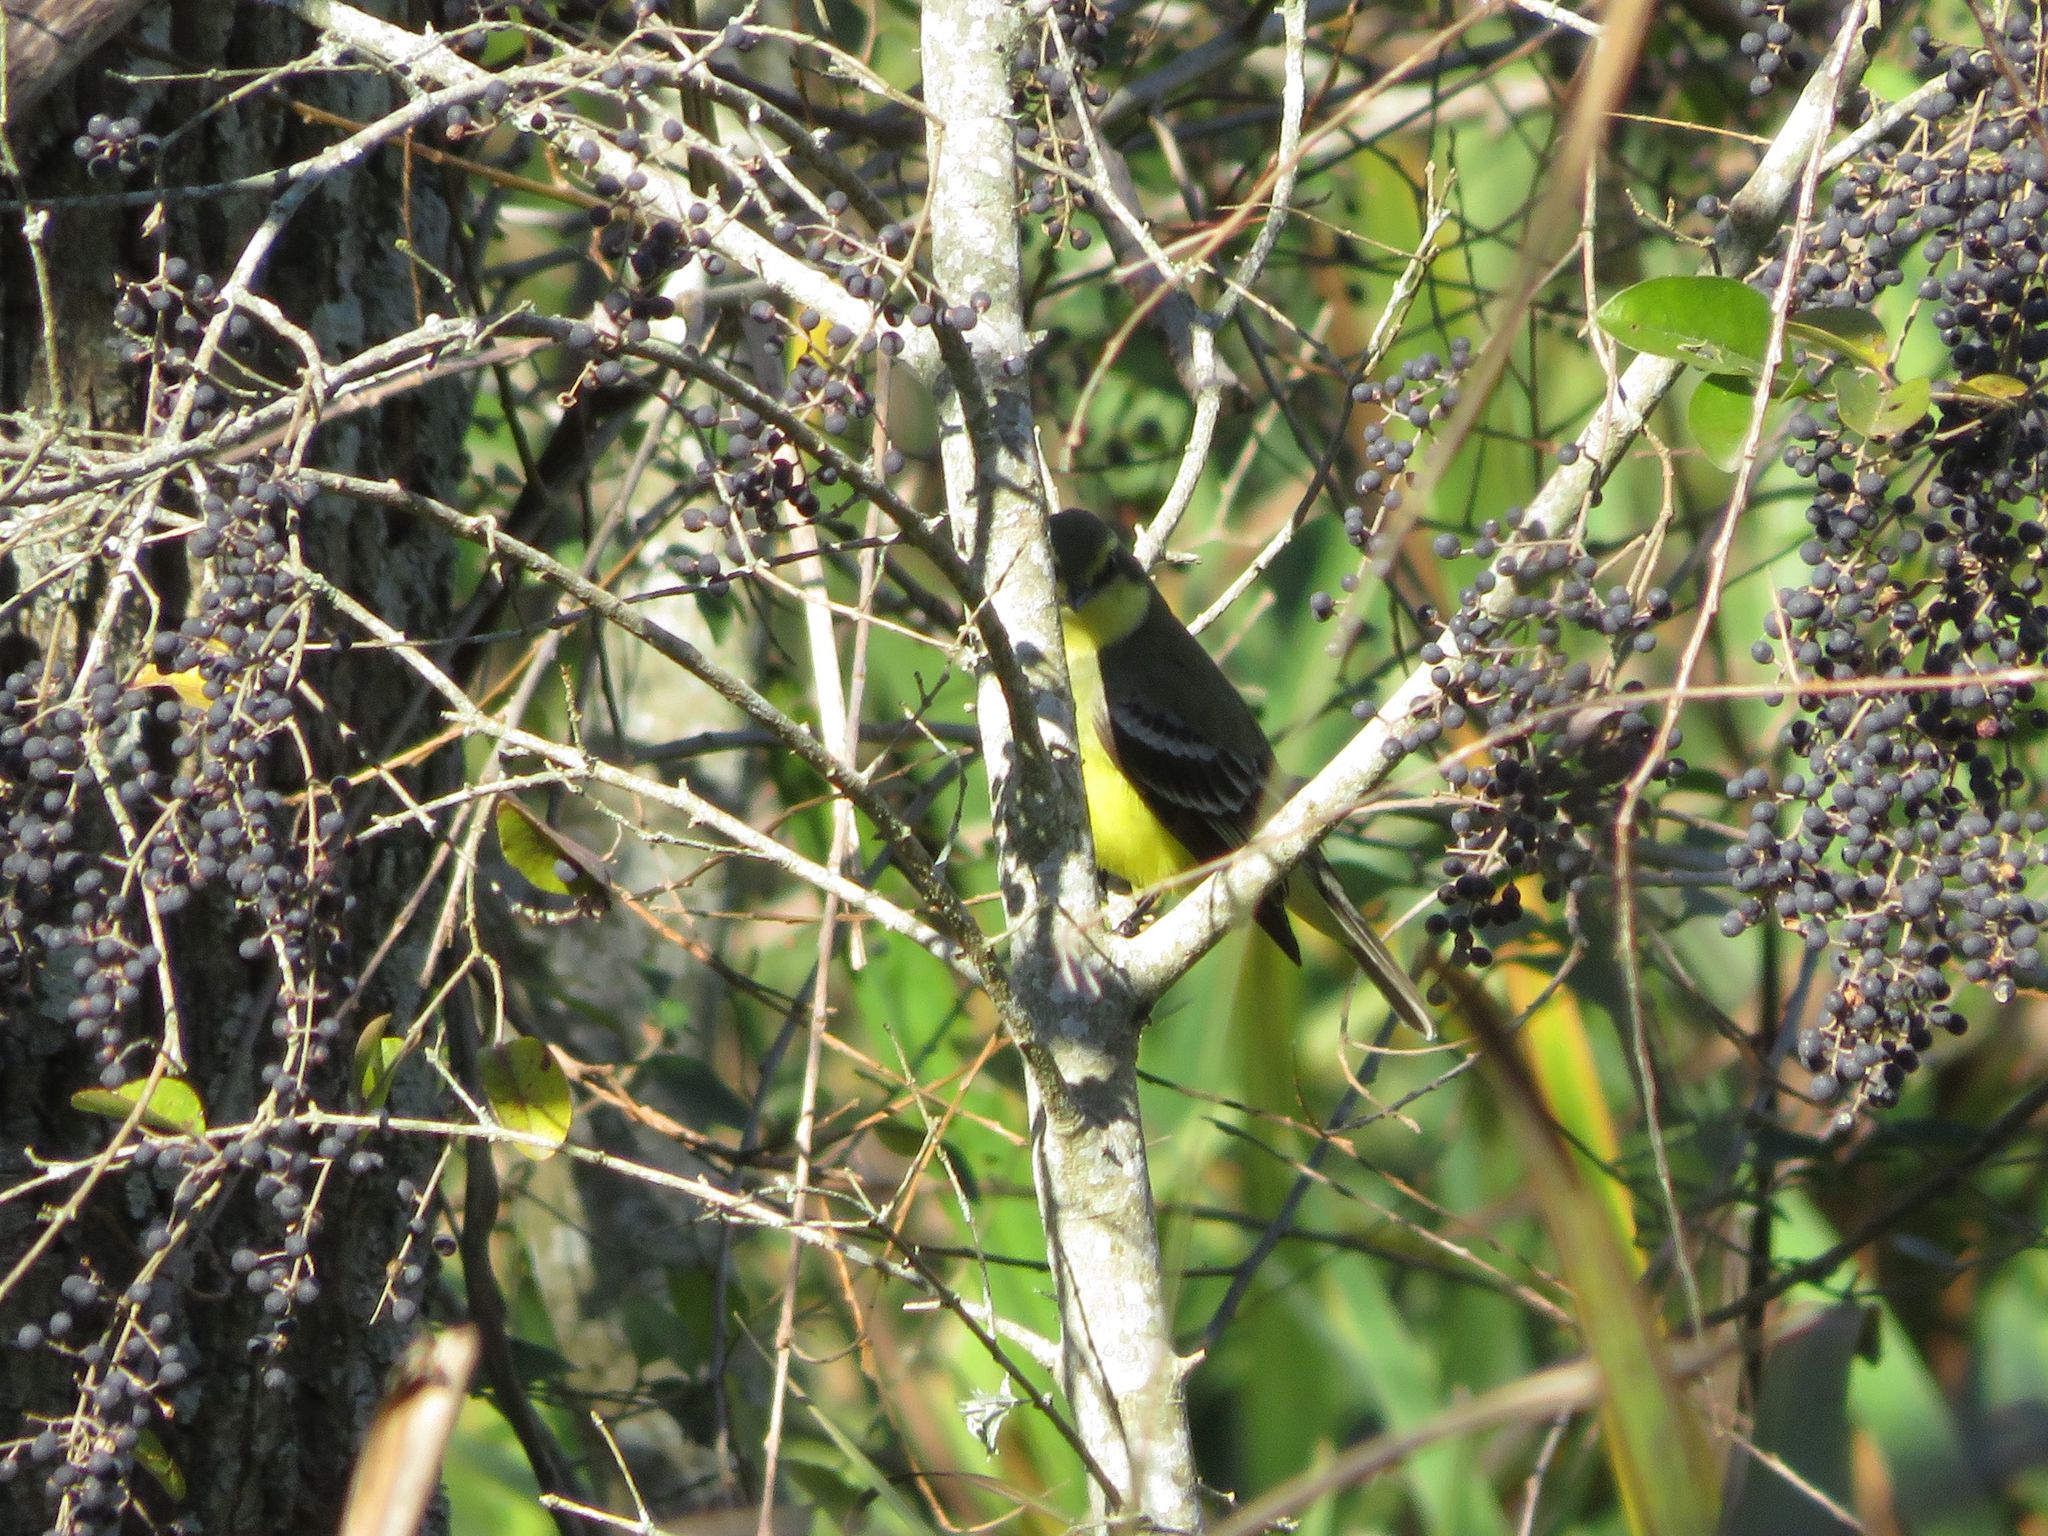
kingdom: Animalia
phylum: Chordata
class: Aves
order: Passeriformes
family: Tyrannidae
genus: Satrapa
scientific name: Satrapa icterophrys
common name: Yellow-browed tyrant
